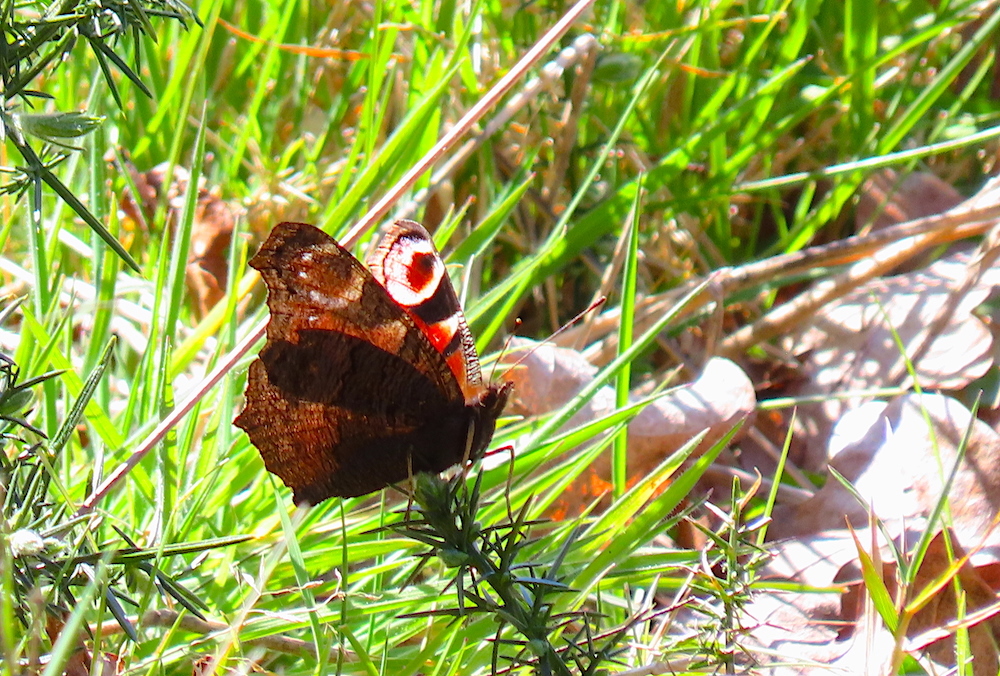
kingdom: Animalia
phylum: Arthropoda
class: Insecta
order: Lepidoptera
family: Nymphalidae
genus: Aglais
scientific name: Aglais io
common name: Peacock
